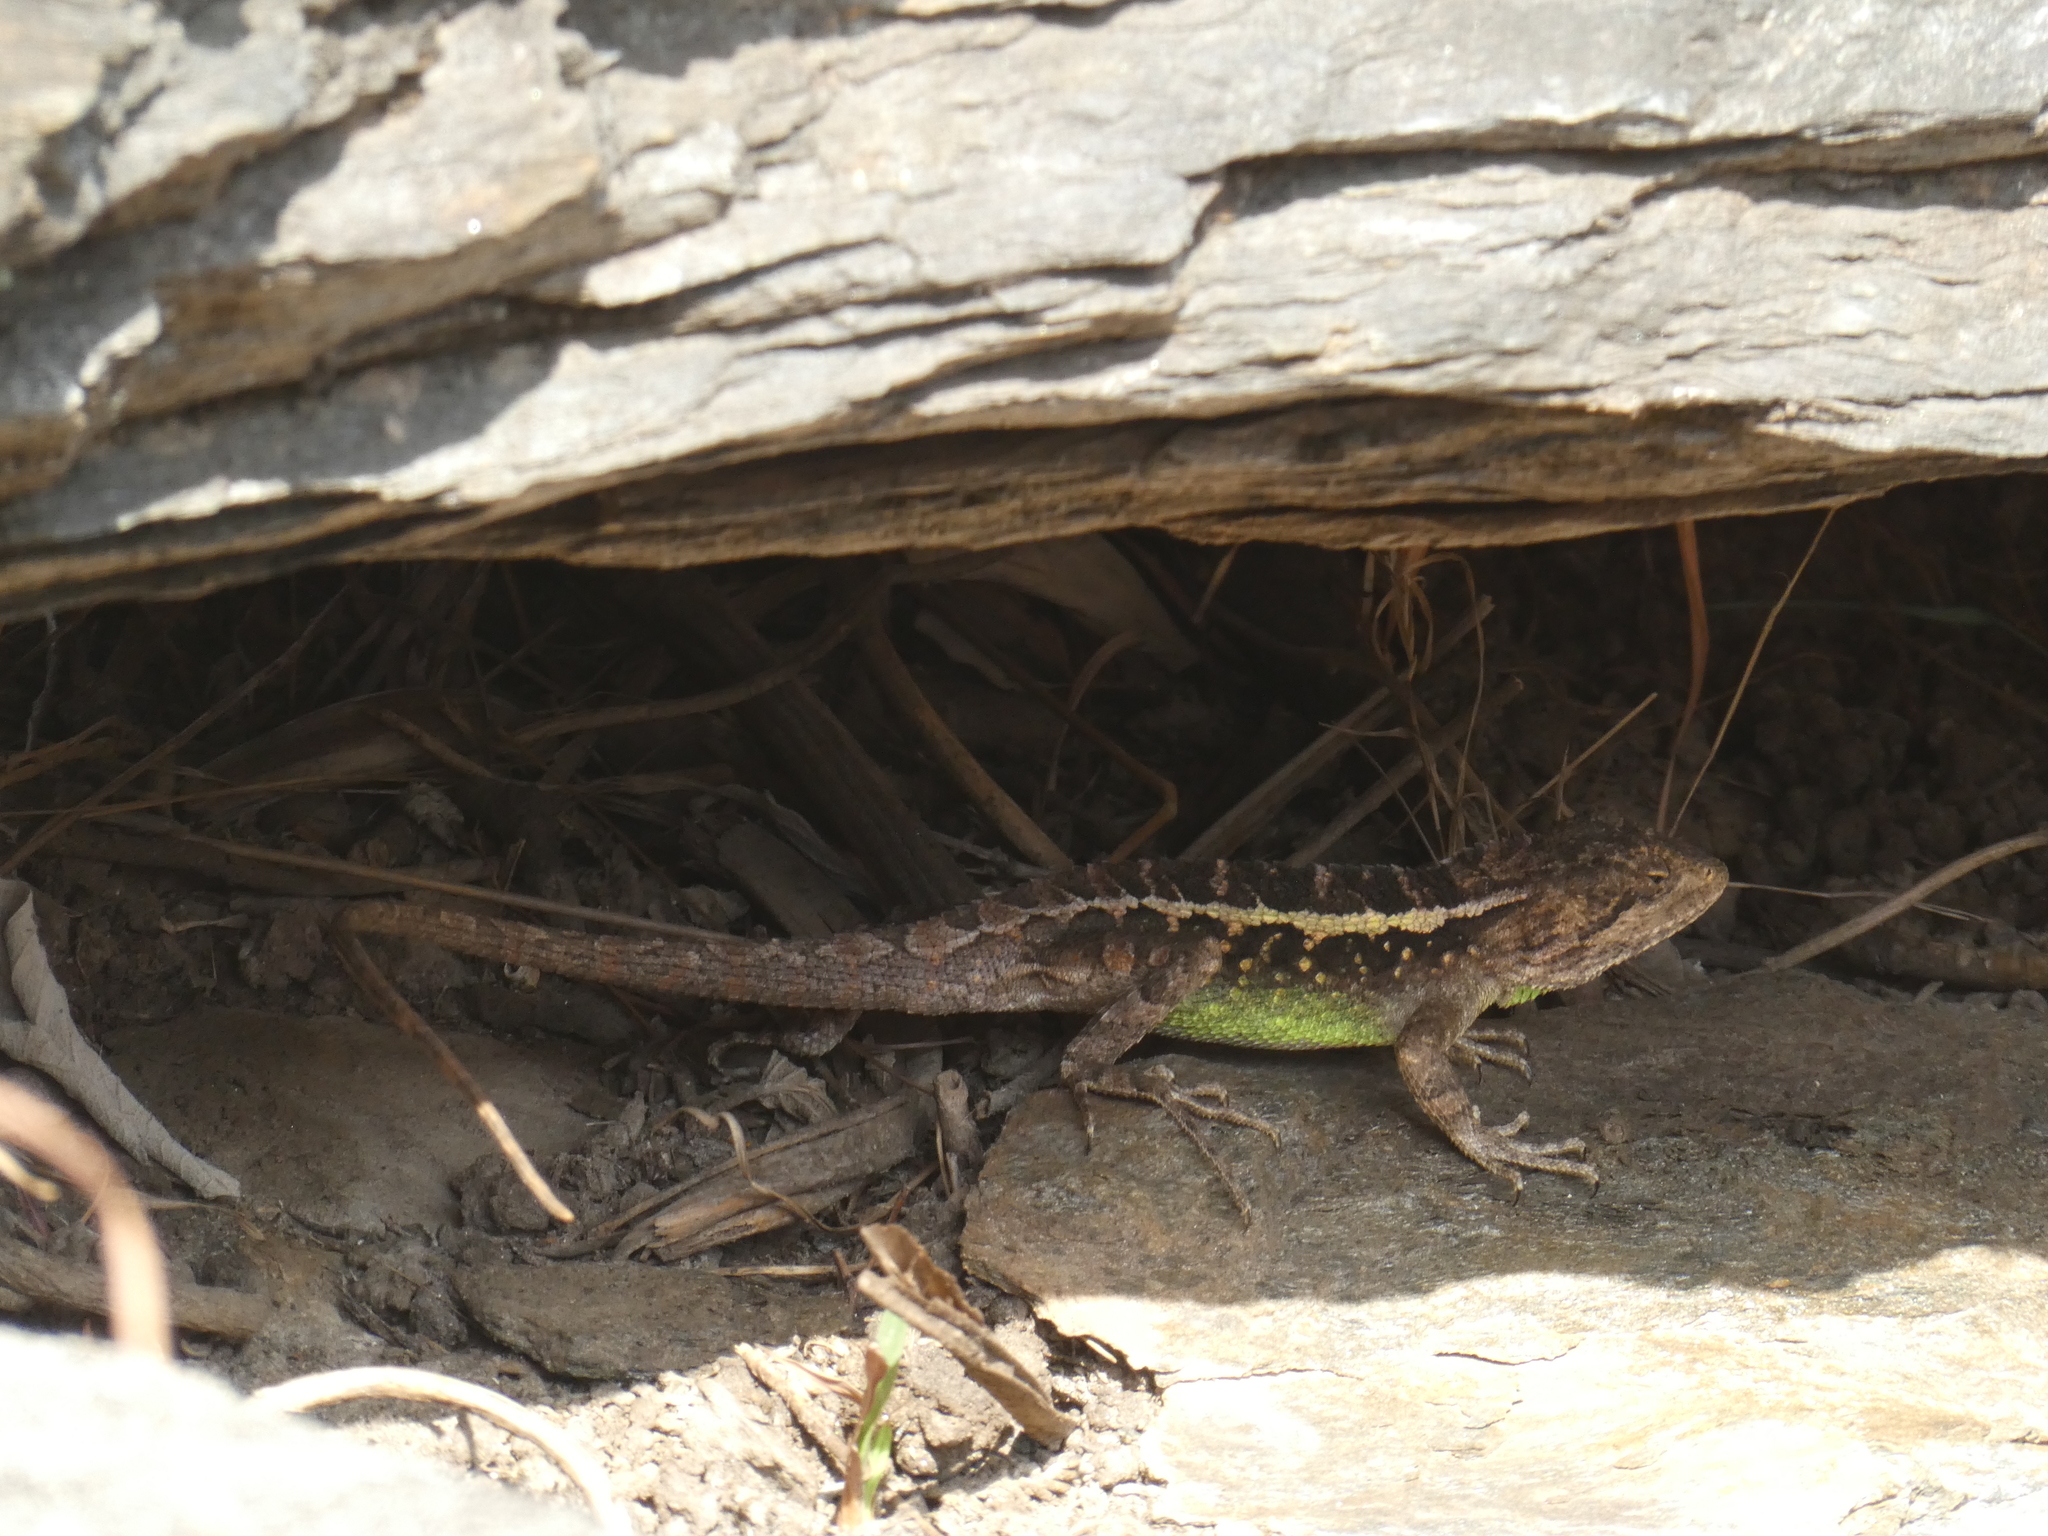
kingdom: Animalia
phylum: Chordata
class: Squamata
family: Agamidae
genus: Diploderma
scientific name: Diploderma yulongense
